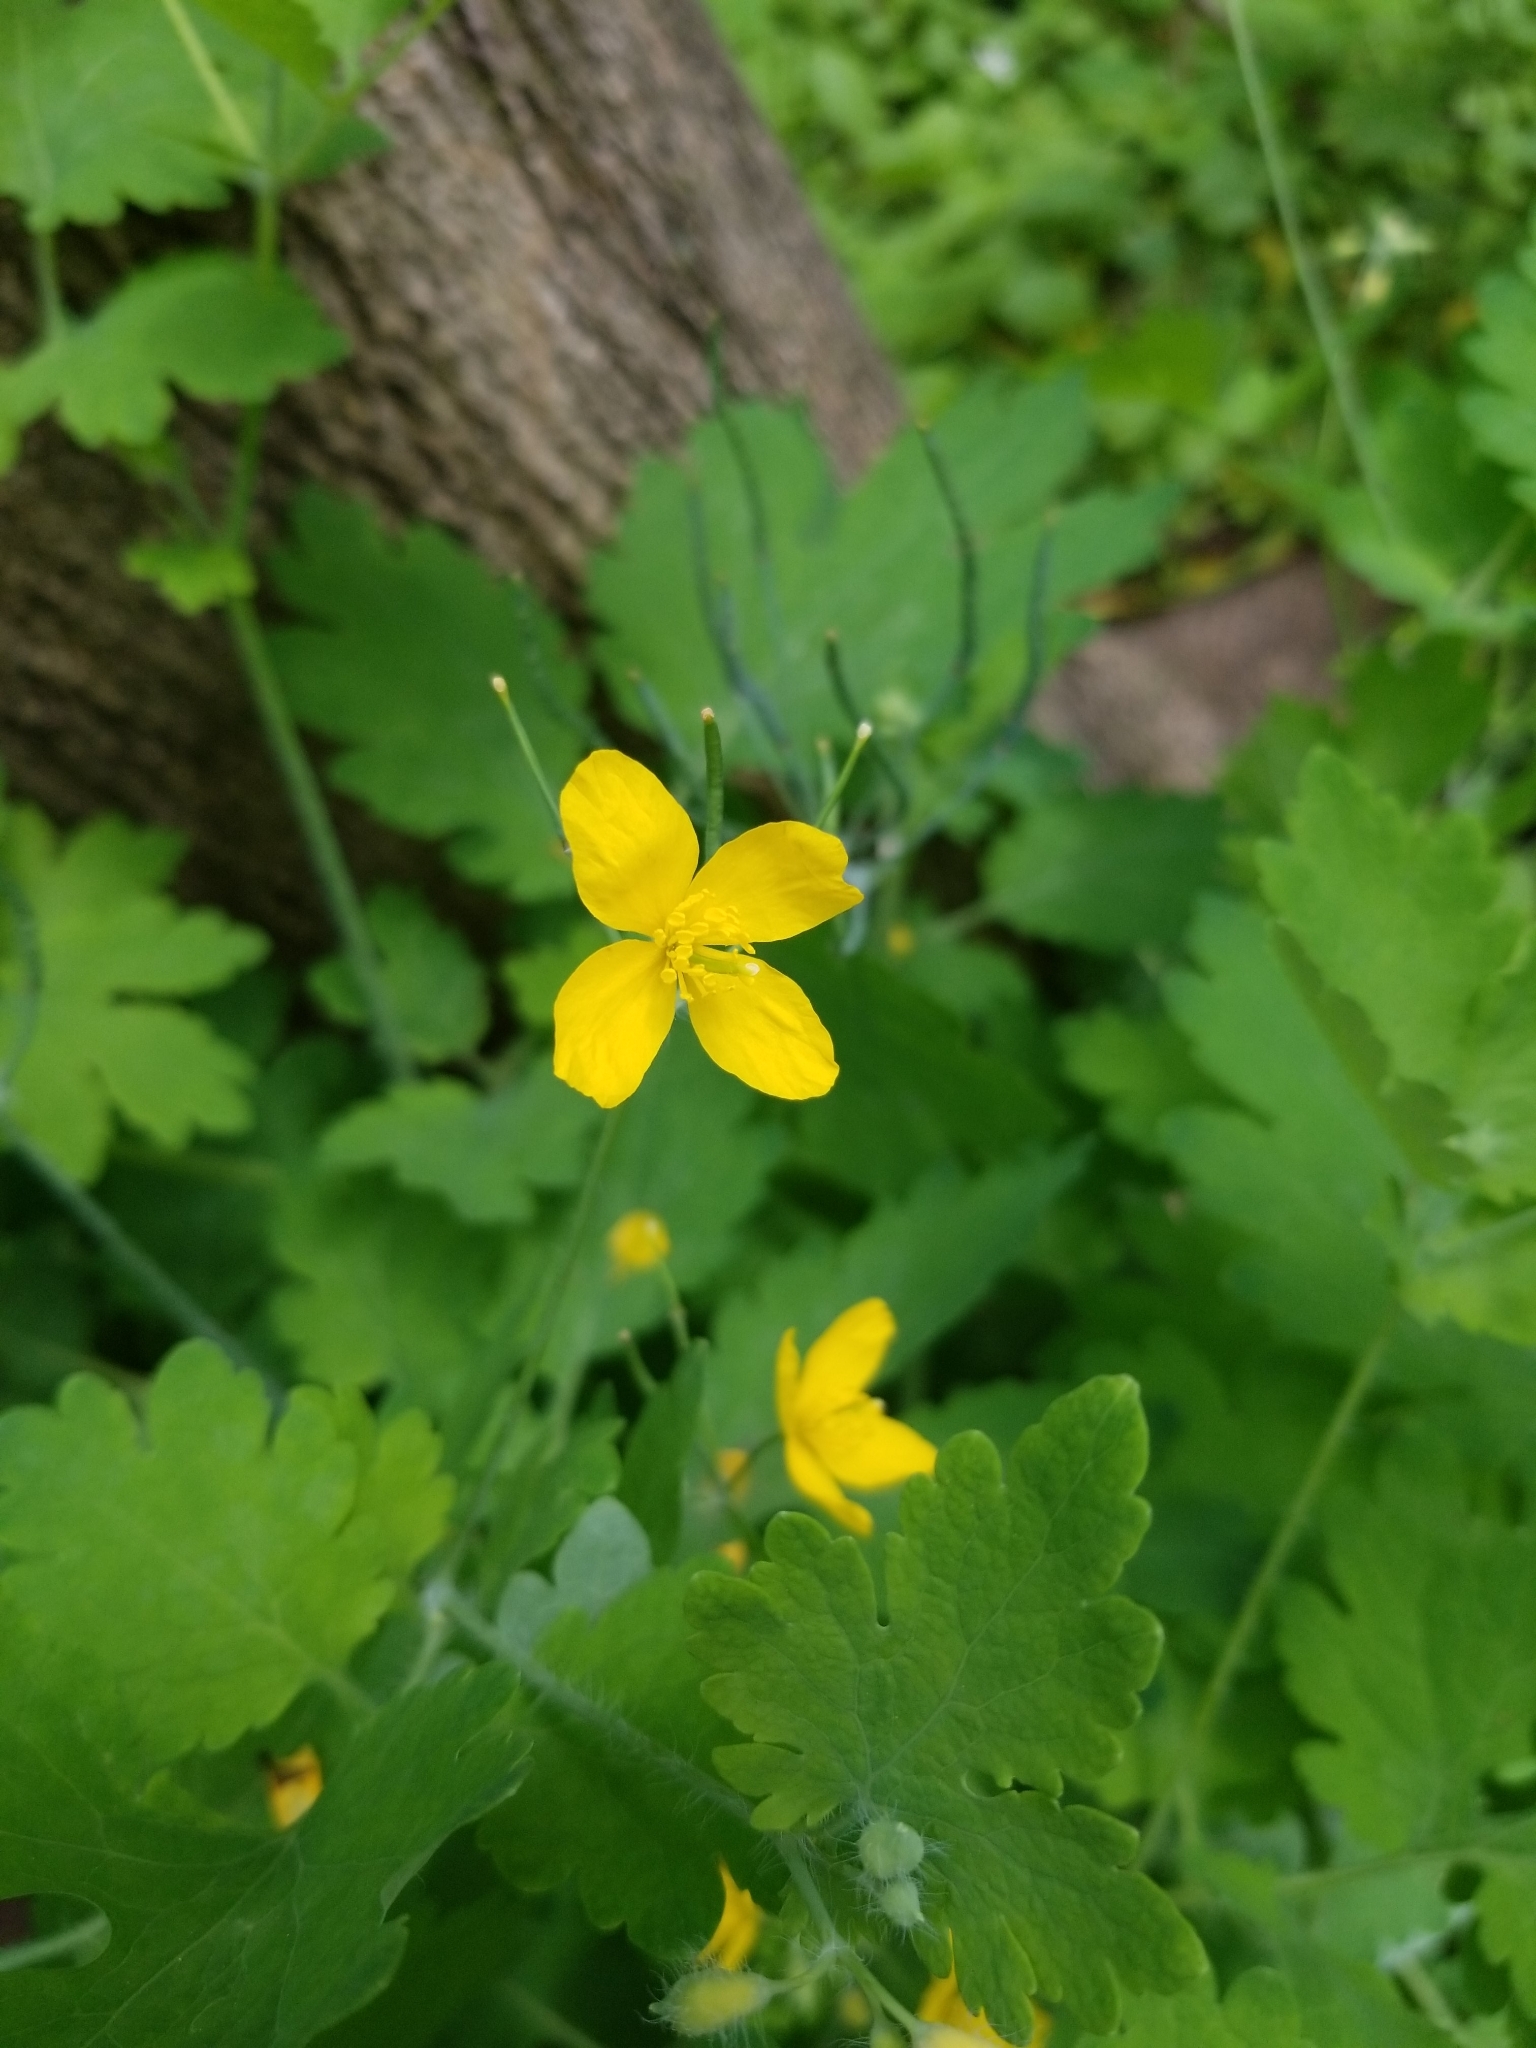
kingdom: Plantae
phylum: Tracheophyta
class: Magnoliopsida
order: Ranunculales
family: Papaveraceae
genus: Chelidonium
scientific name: Chelidonium majus
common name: Greater celandine
